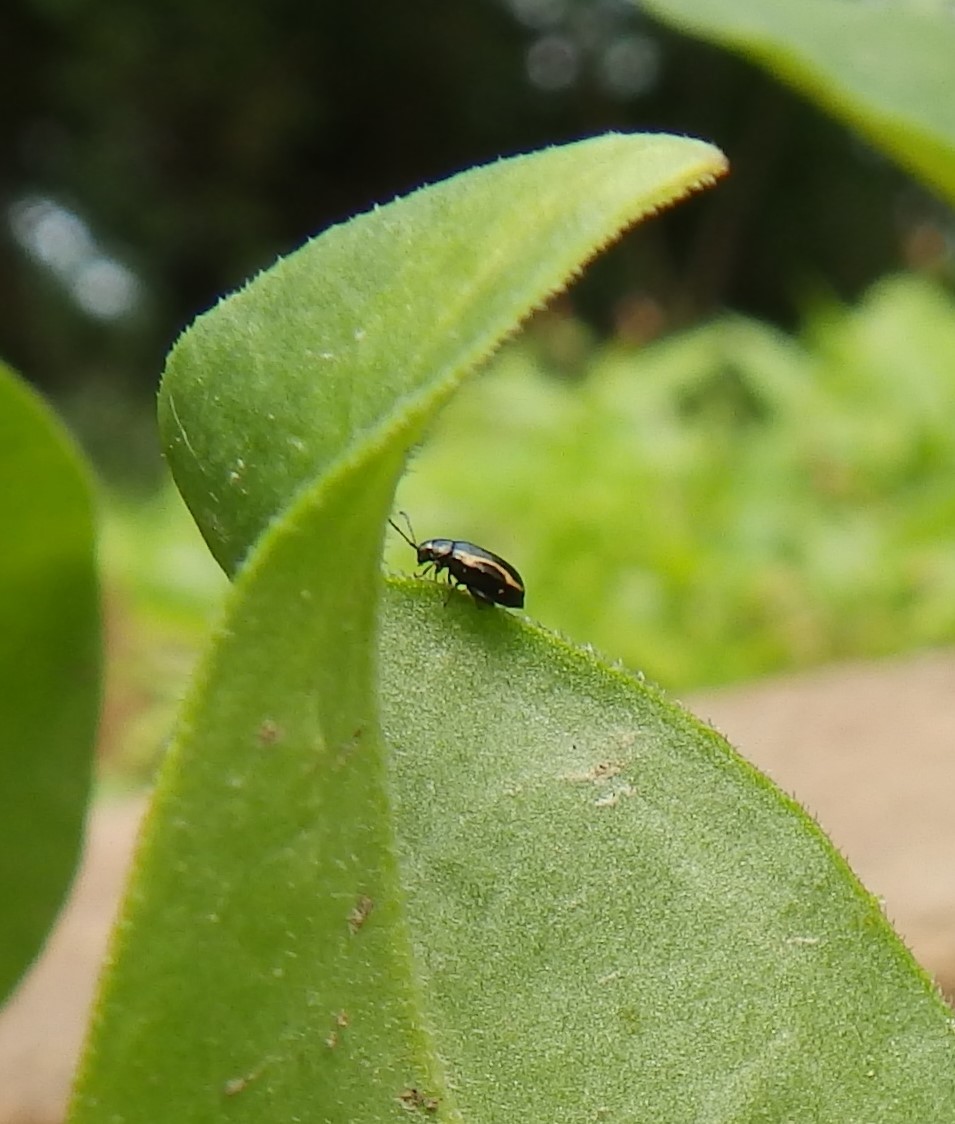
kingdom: Animalia
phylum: Arthropoda
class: Insecta
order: Coleoptera
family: Chrysomelidae
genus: Phyllotreta
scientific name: Phyllotreta striolata
